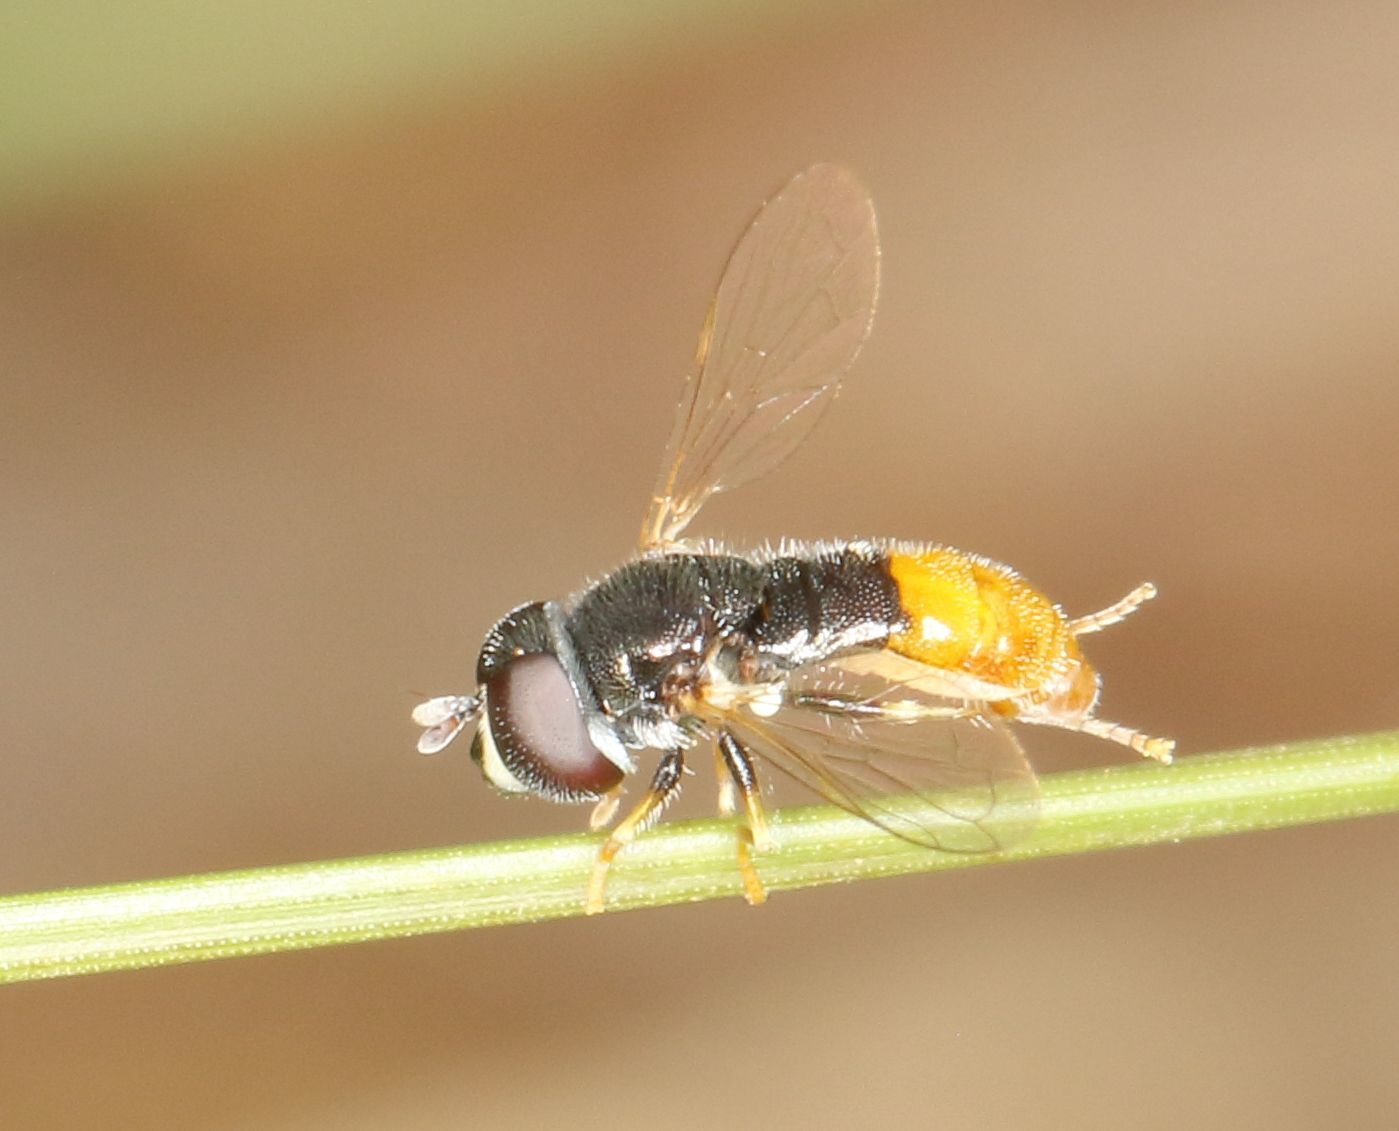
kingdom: Animalia
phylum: Arthropoda
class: Insecta
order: Diptera
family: Syrphidae
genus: Paragus
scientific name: Paragus haemorrhous
